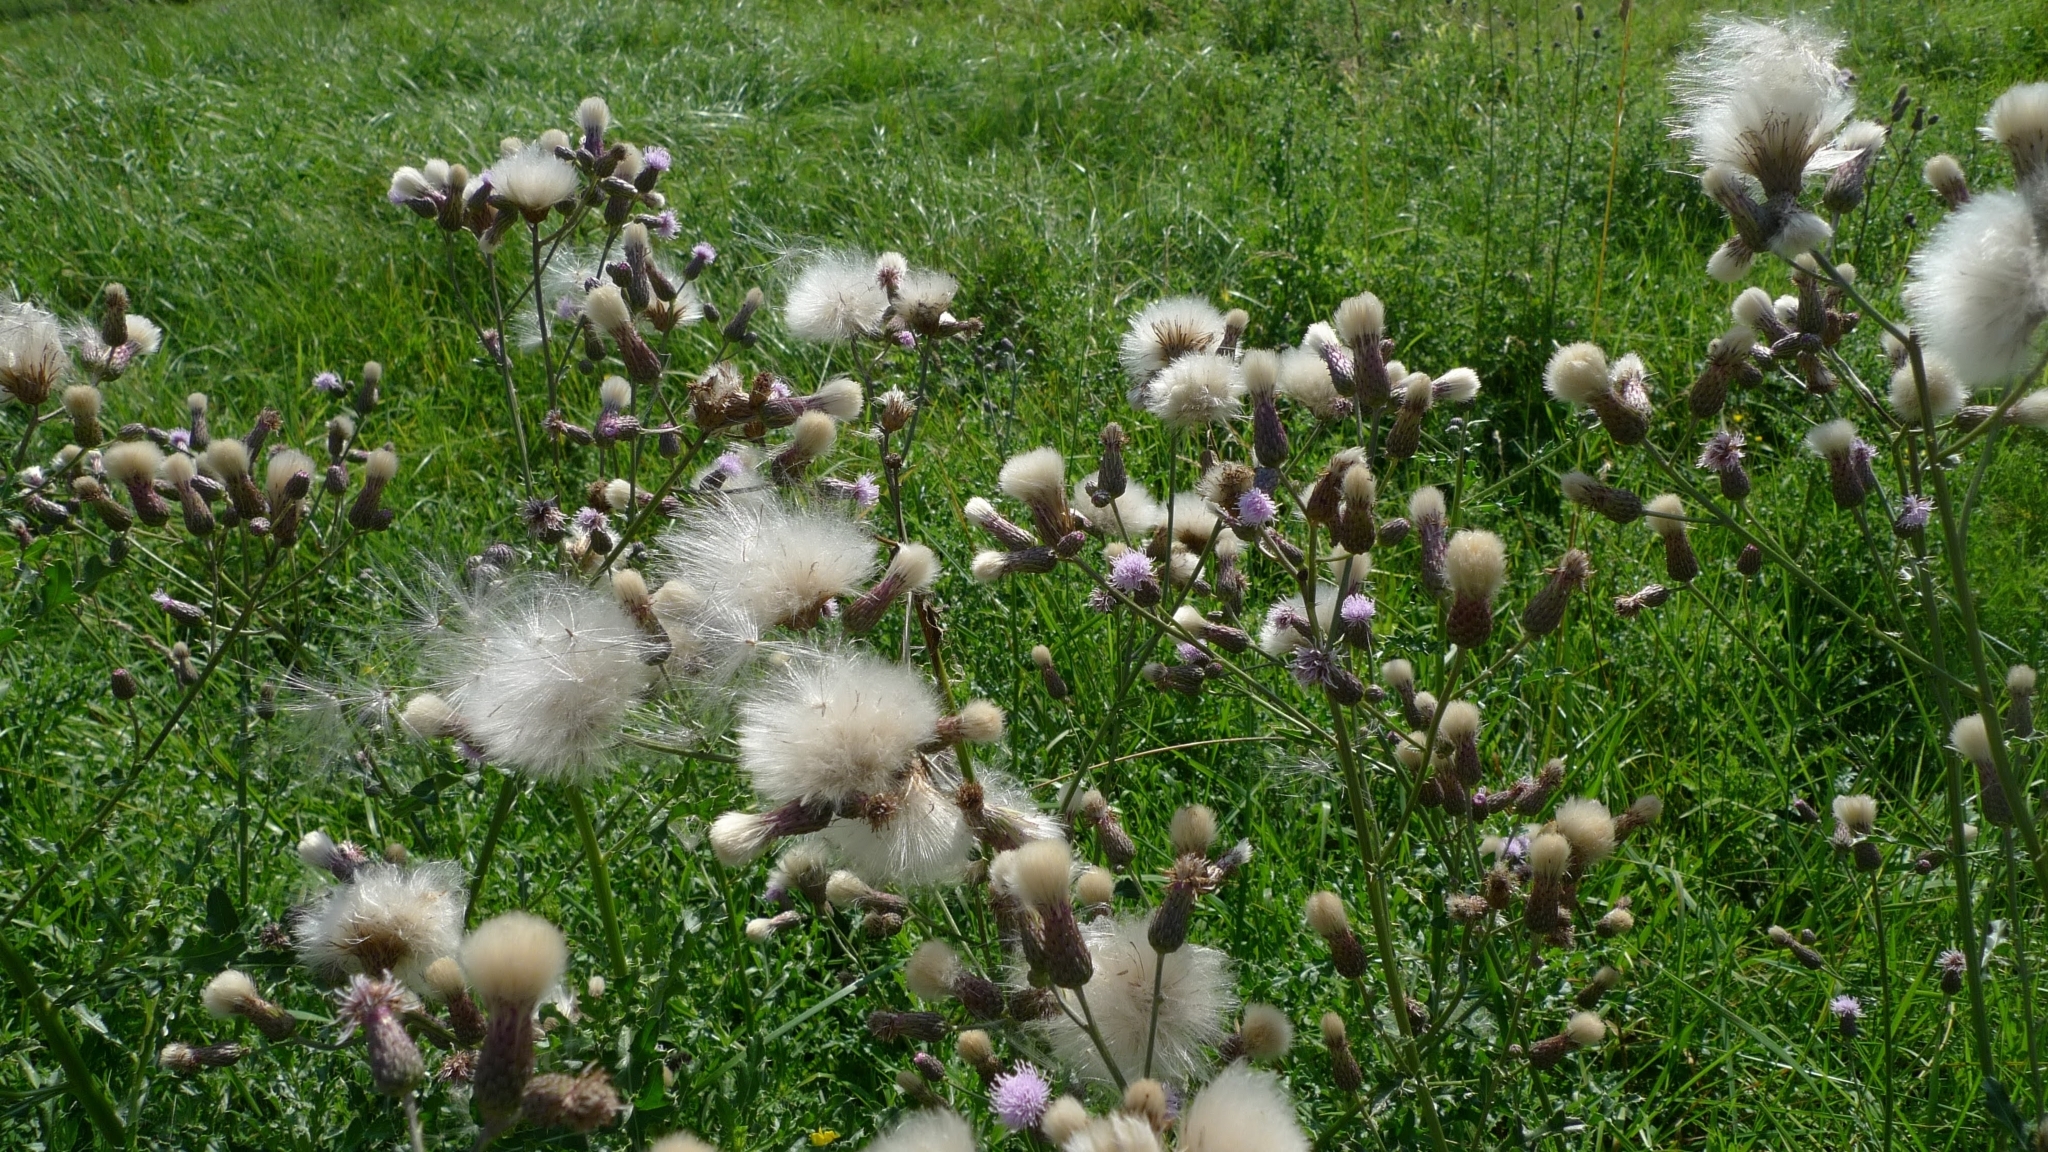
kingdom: Plantae
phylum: Tracheophyta
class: Magnoliopsida
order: Asterales
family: Asteraceae
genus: Cirsium
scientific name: Cirsium arvense
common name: Creeping thistle
